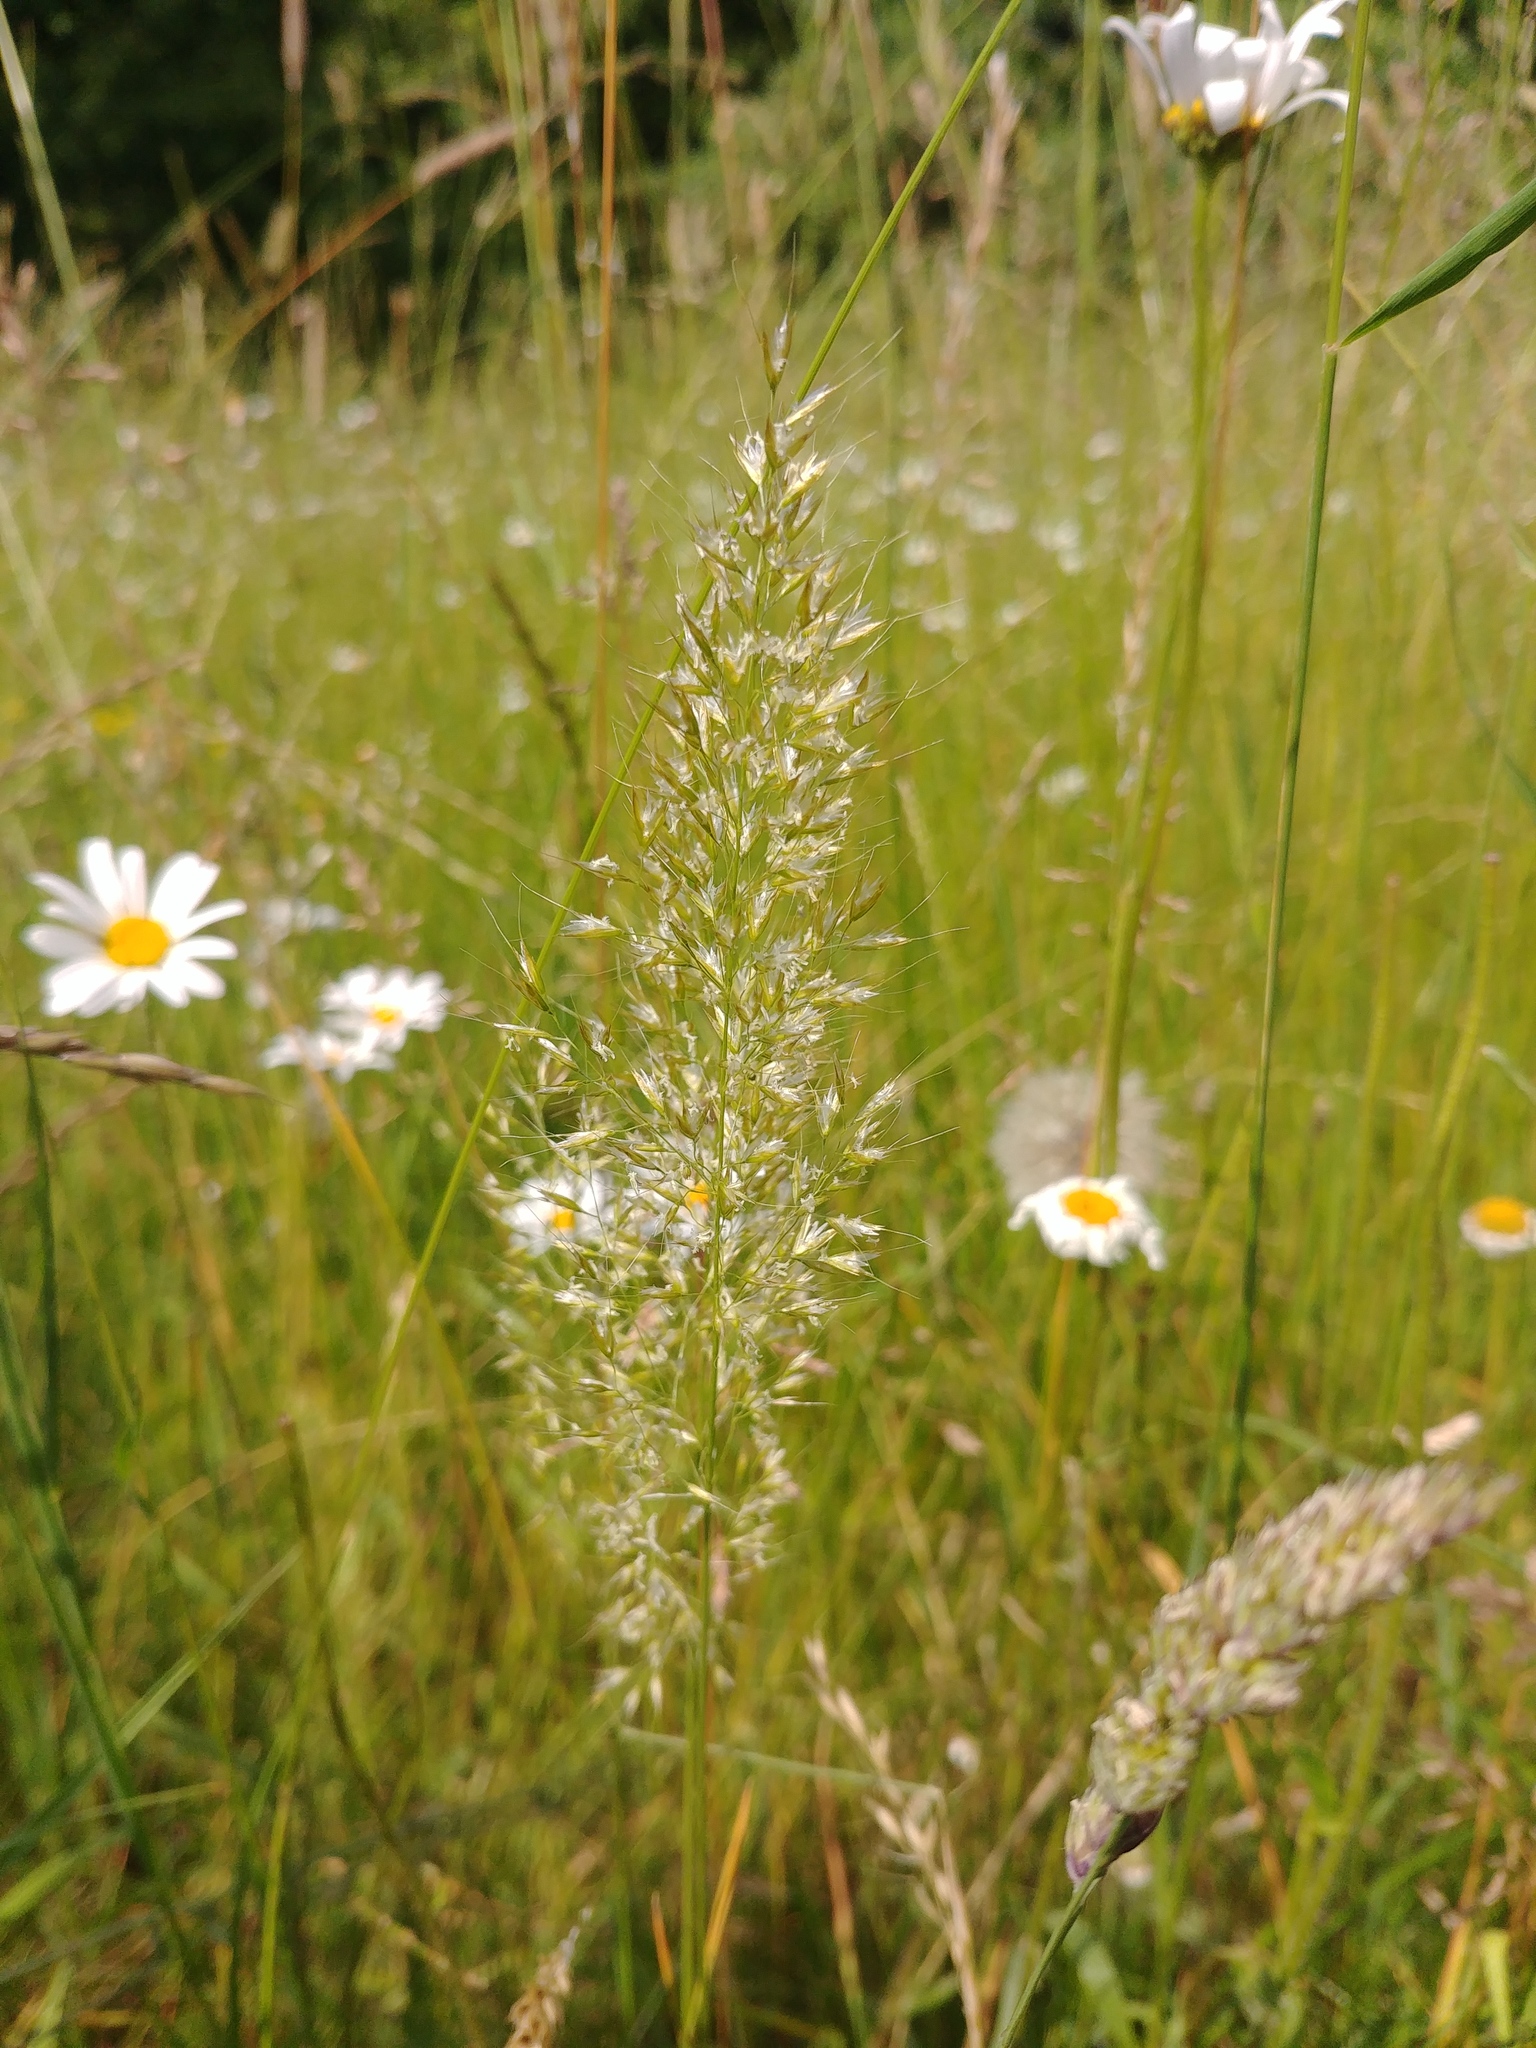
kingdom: Plantae
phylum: Tracheophyta
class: Liliopsida
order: Poales
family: Poaceae
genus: Trisetum
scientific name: Trisetum flavescens
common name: Yellow oat-grass
